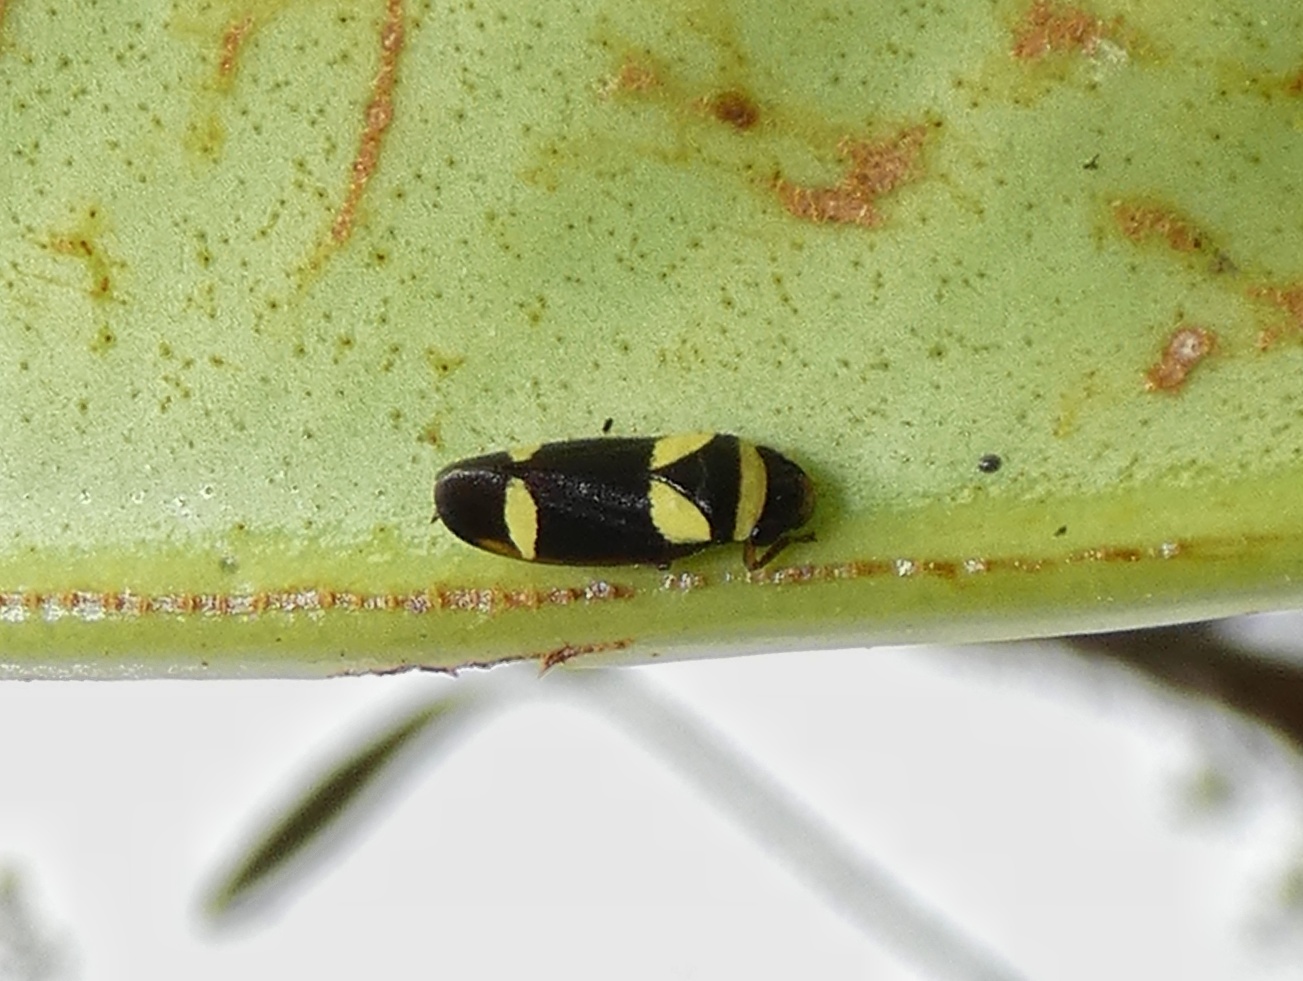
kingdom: Animalia
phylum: Arthropoda
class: Insecta
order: Hemiptera
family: Cercopidae
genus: Zuata
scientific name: Zuata luteofascia
